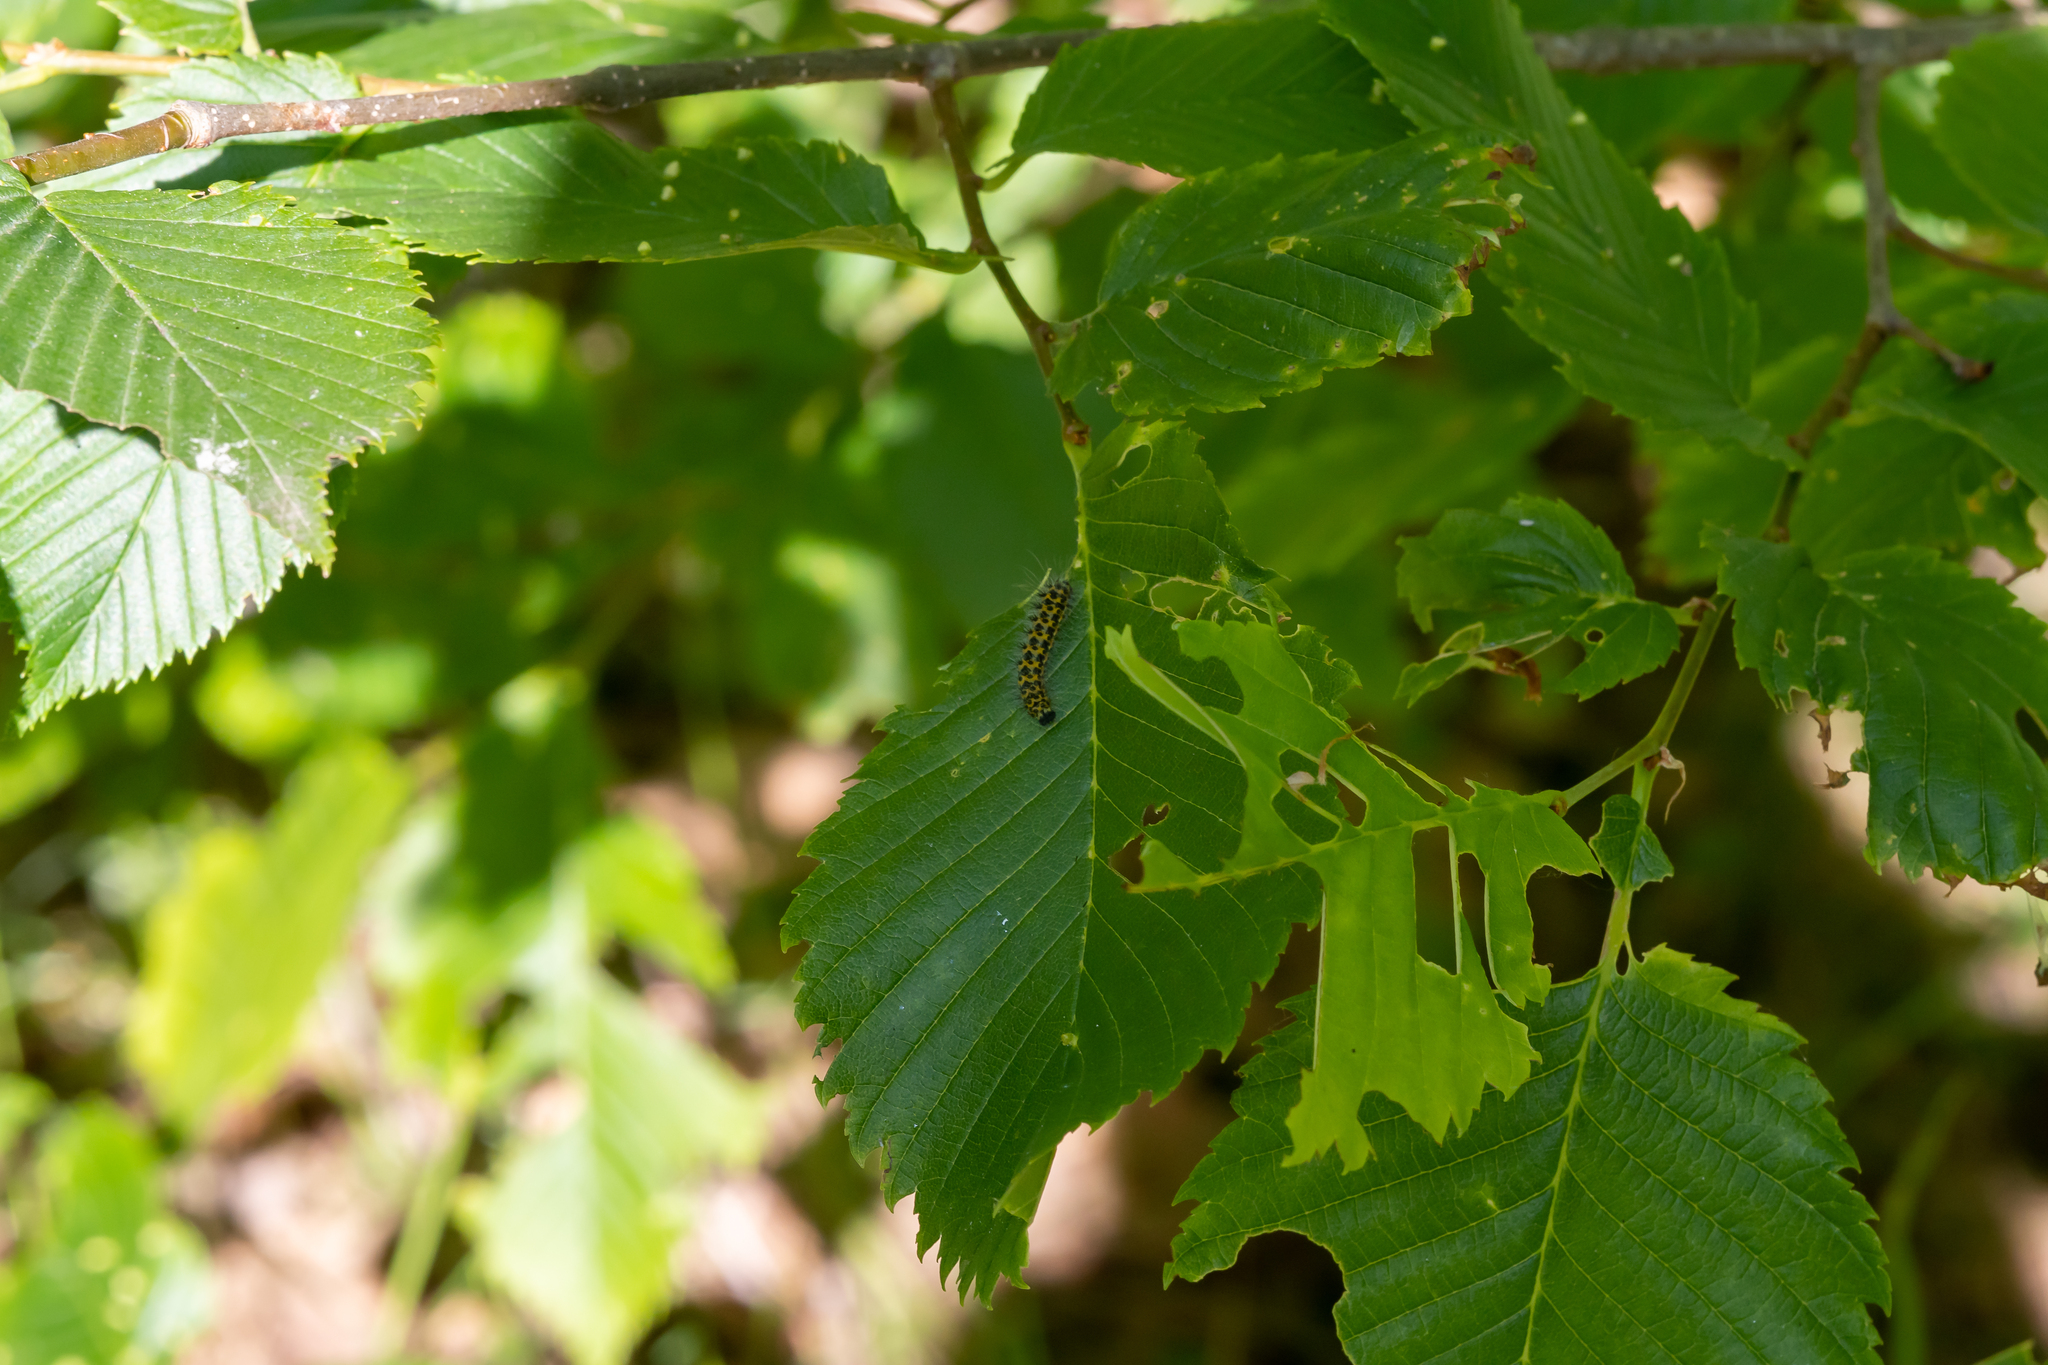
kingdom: Animalia
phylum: Arthropoda
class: Insecta
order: Lepidoptera
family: Saturniidae
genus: Saturnia
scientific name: Saturnia pavonia
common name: Emperor moth
